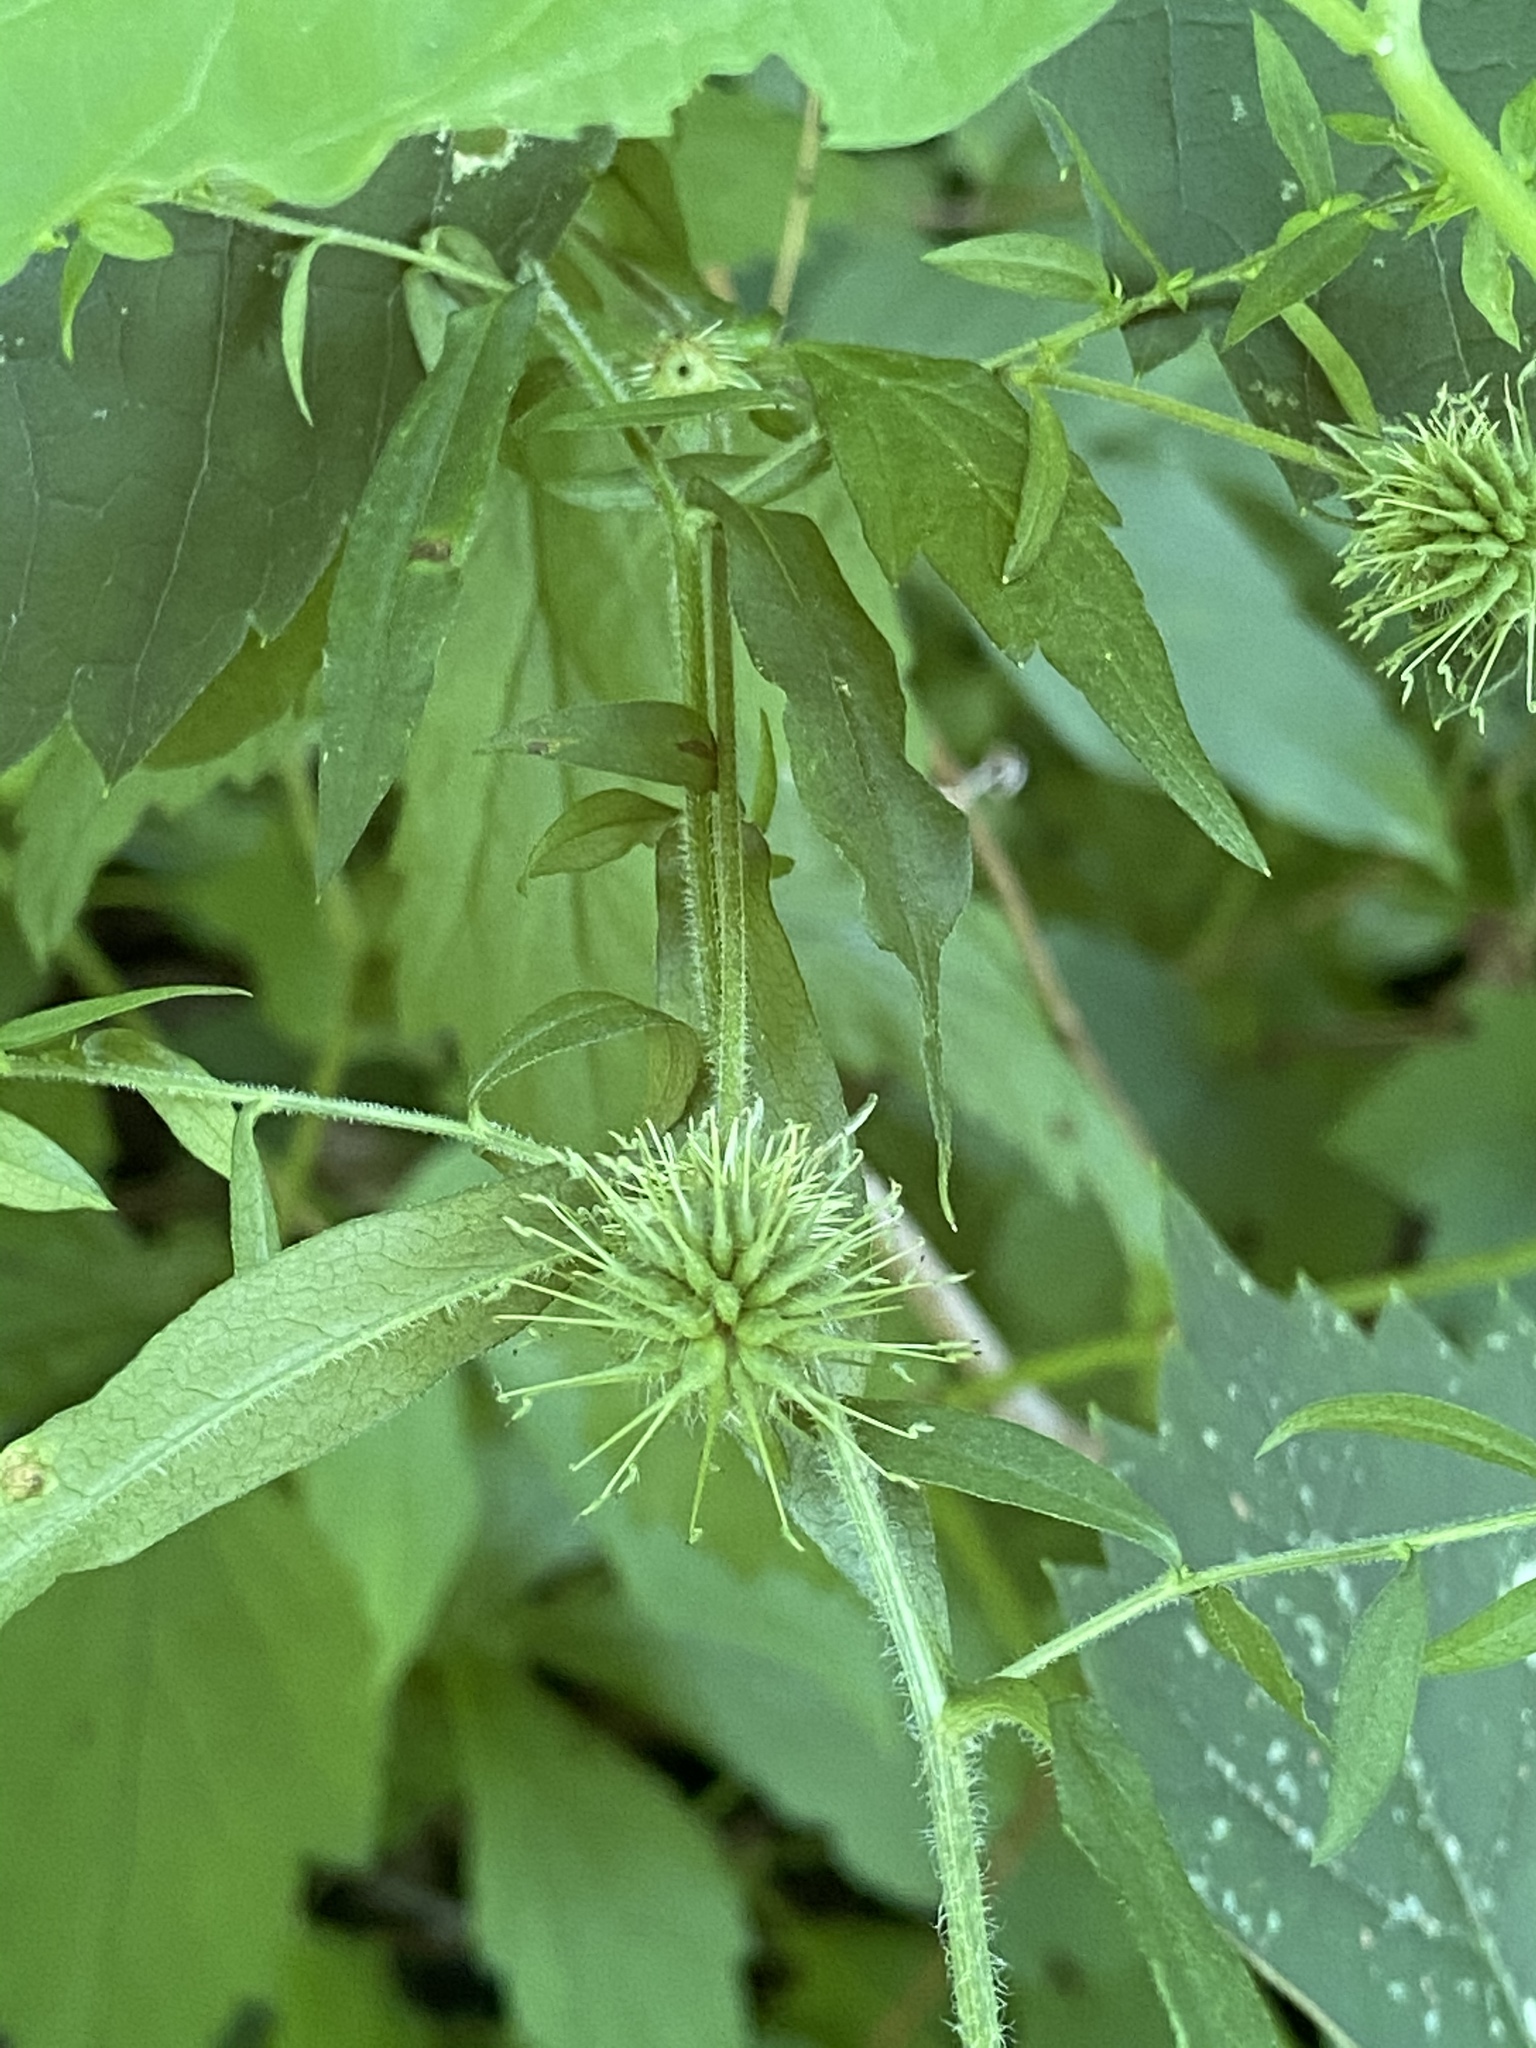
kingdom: Plantae
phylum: Tracheophyta
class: Magnoliopsida
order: Solanales
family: Solanaceae
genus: Solanum
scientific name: Solanum dulcamara
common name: Climbing nightshade
